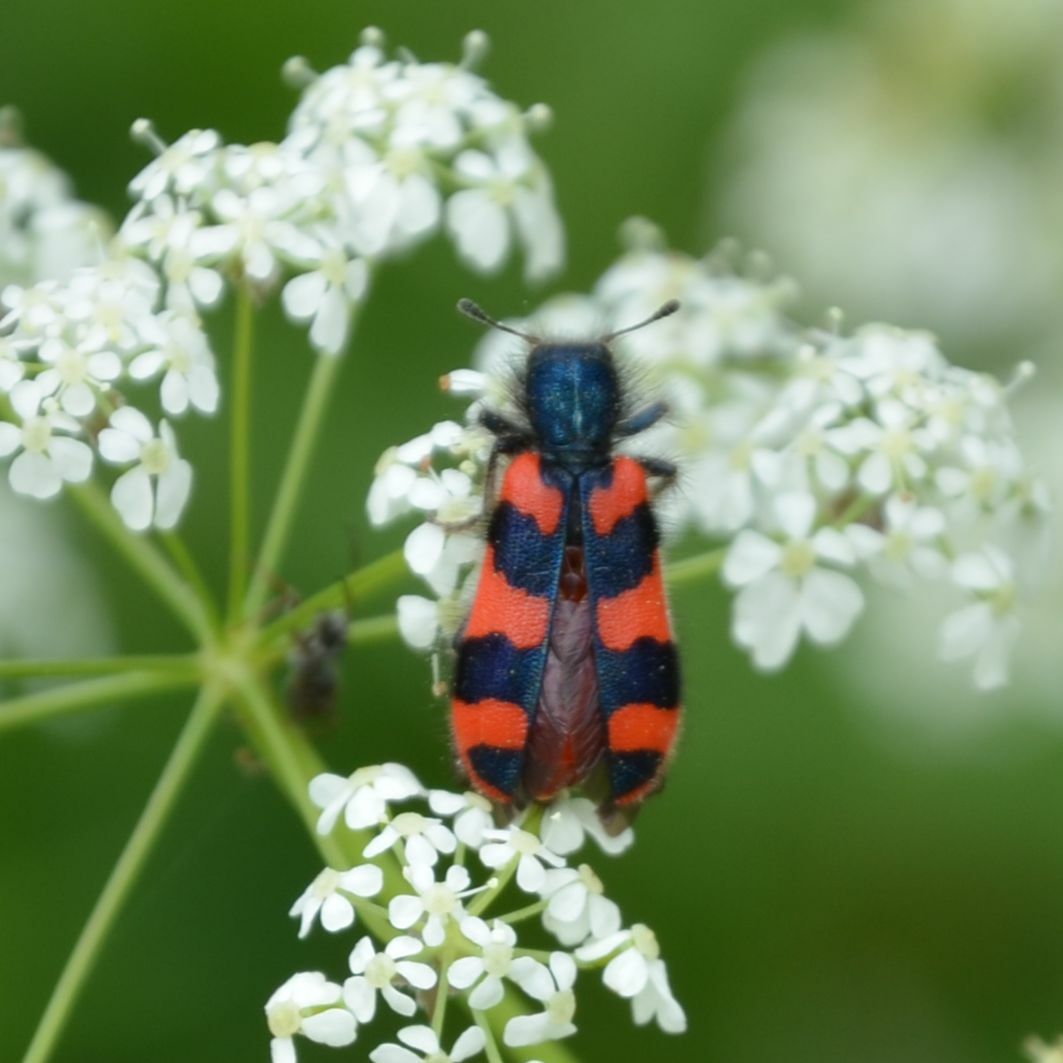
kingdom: Animalia
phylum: Arthropoda
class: Insecta
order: Coleoptera
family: Cleridae
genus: Trichodes
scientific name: Trichodes alvearius
